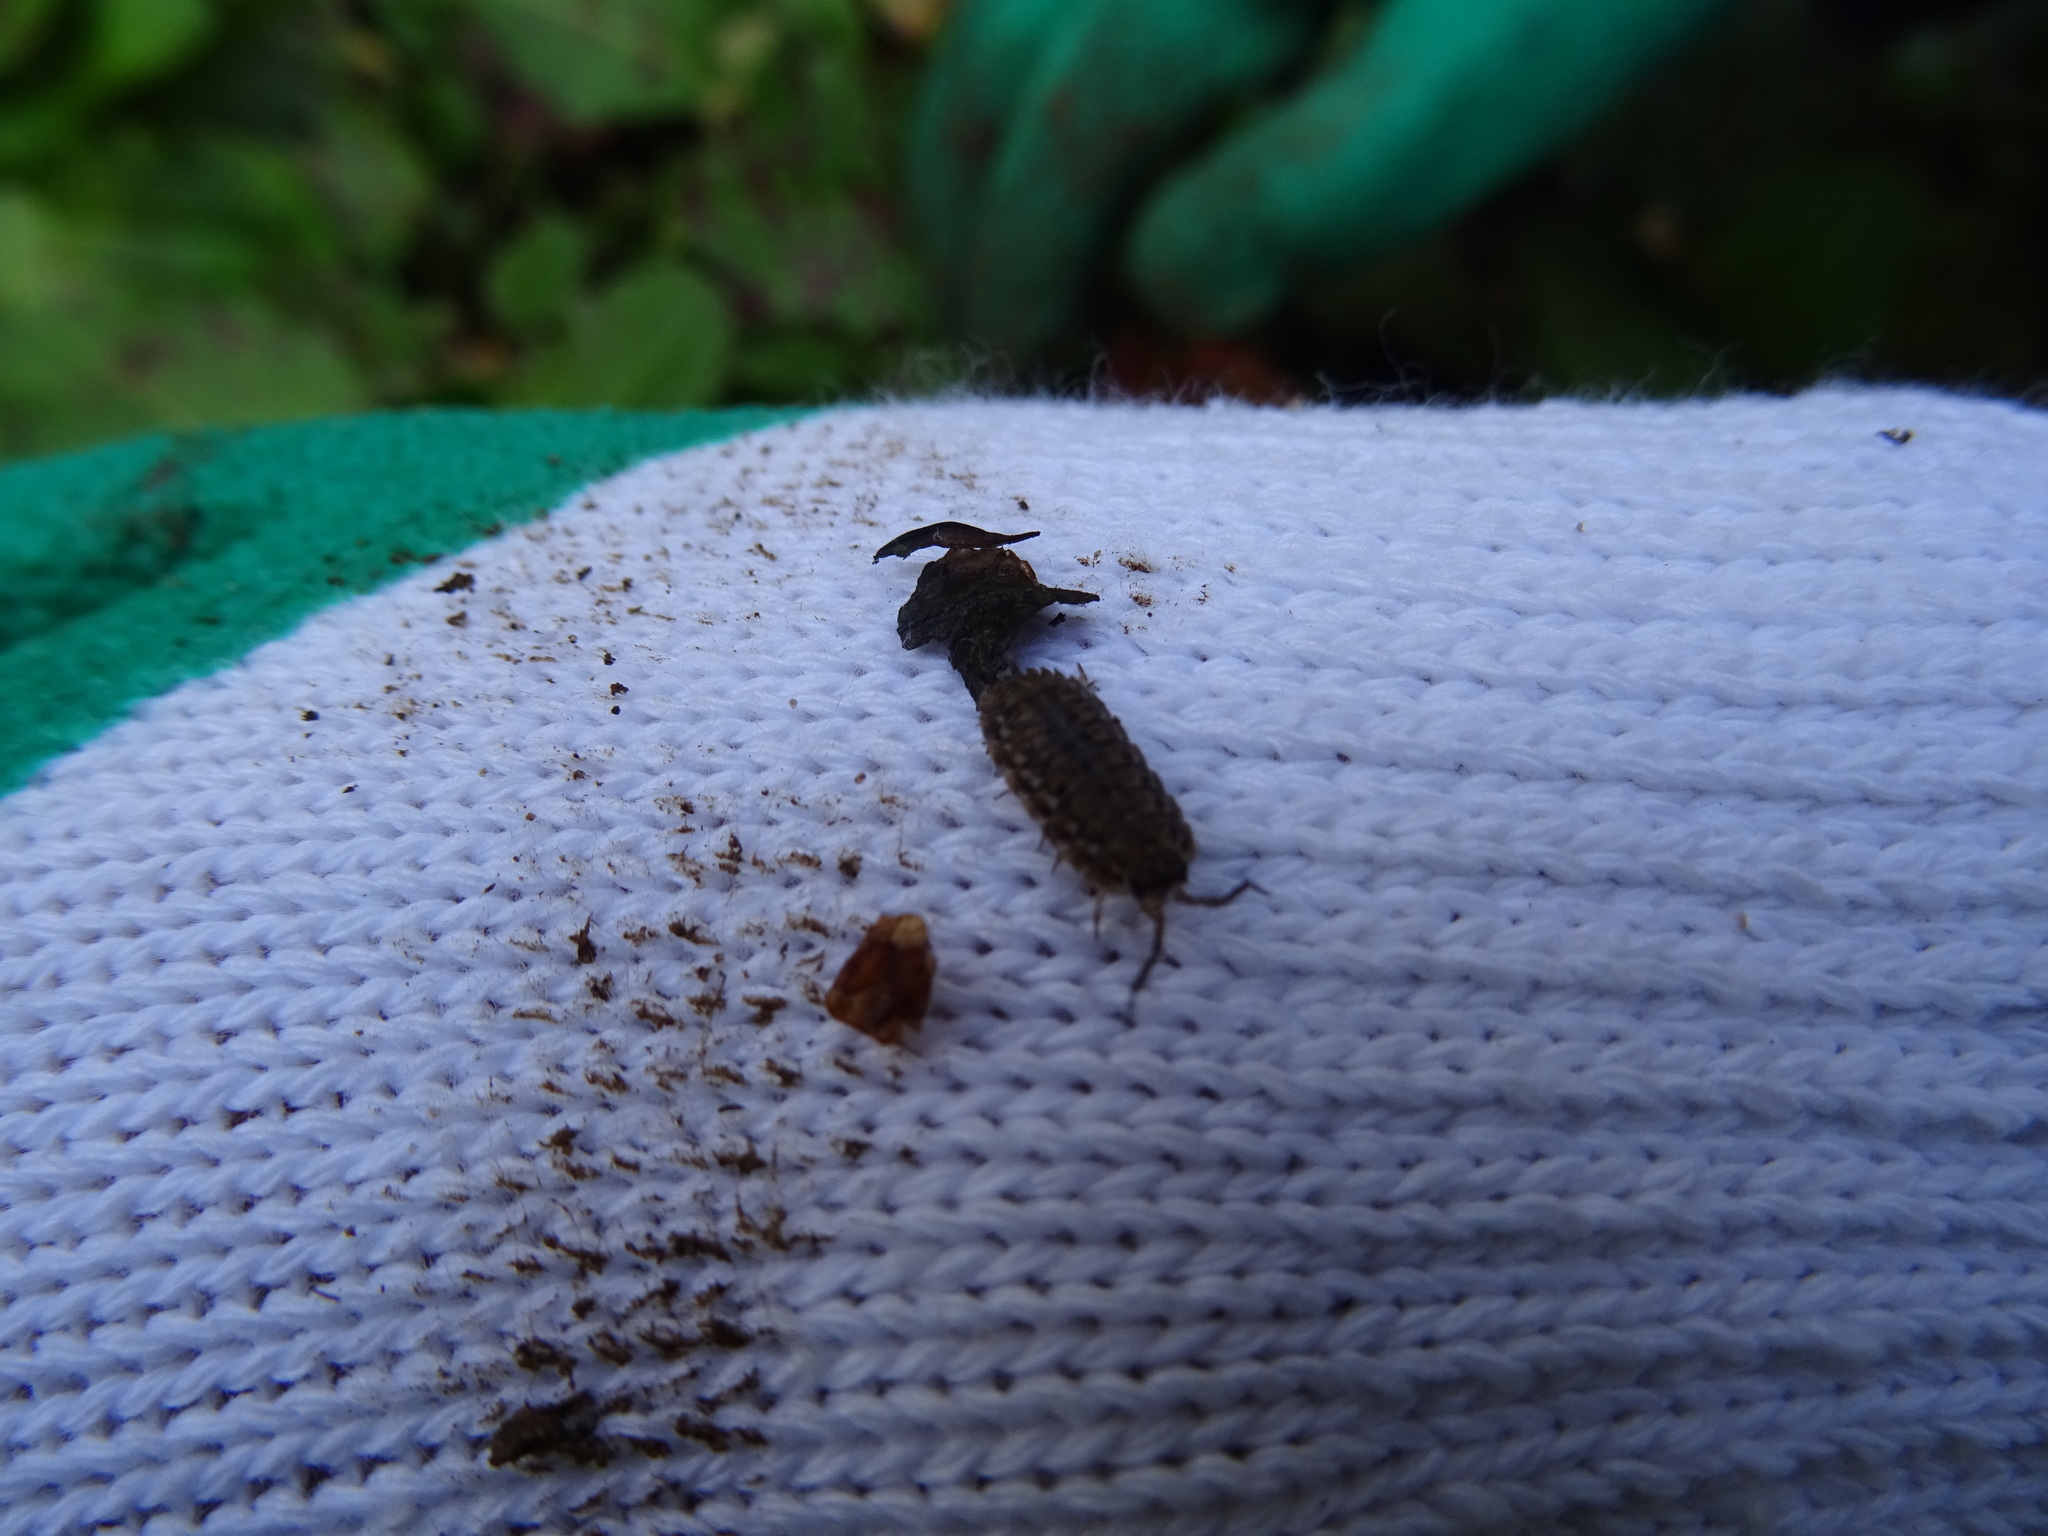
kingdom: Animalia
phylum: Arthropoda
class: Malacostraca
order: Isopoda
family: Trachelipodidae
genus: Trachelipus
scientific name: Trachelipus rathkii
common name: Isopod
